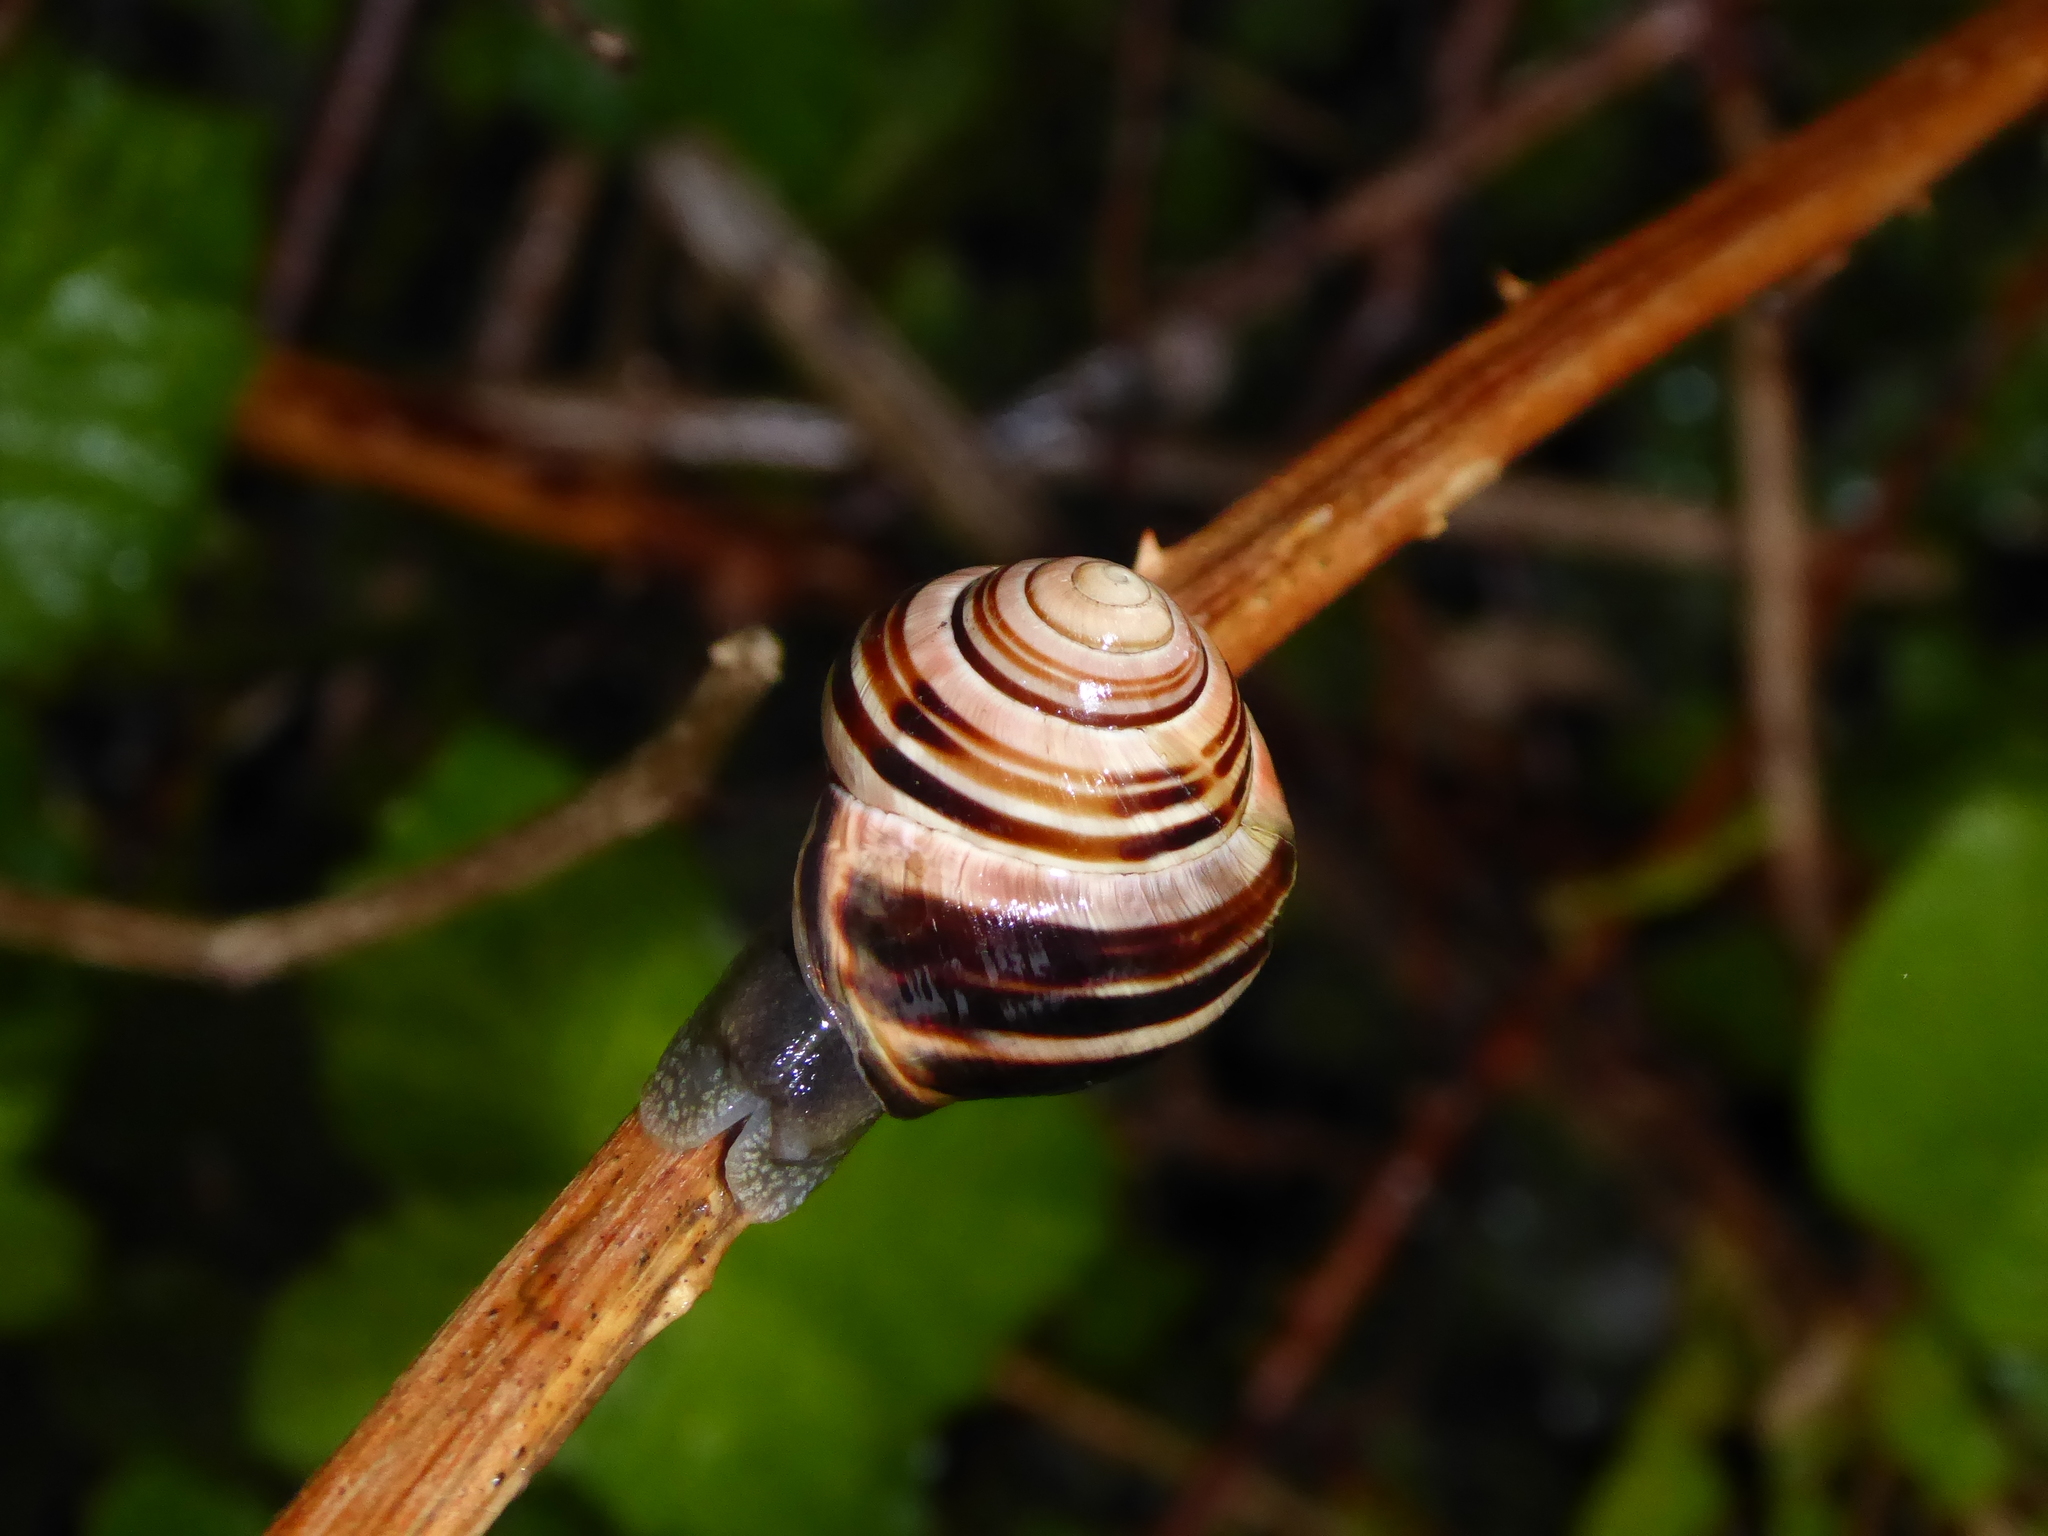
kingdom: Animalia
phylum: Mollusca
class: Gastropoda
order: Stylommatophora
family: Helicidae
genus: Cepaea
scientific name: Cepaea nemoralis
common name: Grovesnail
